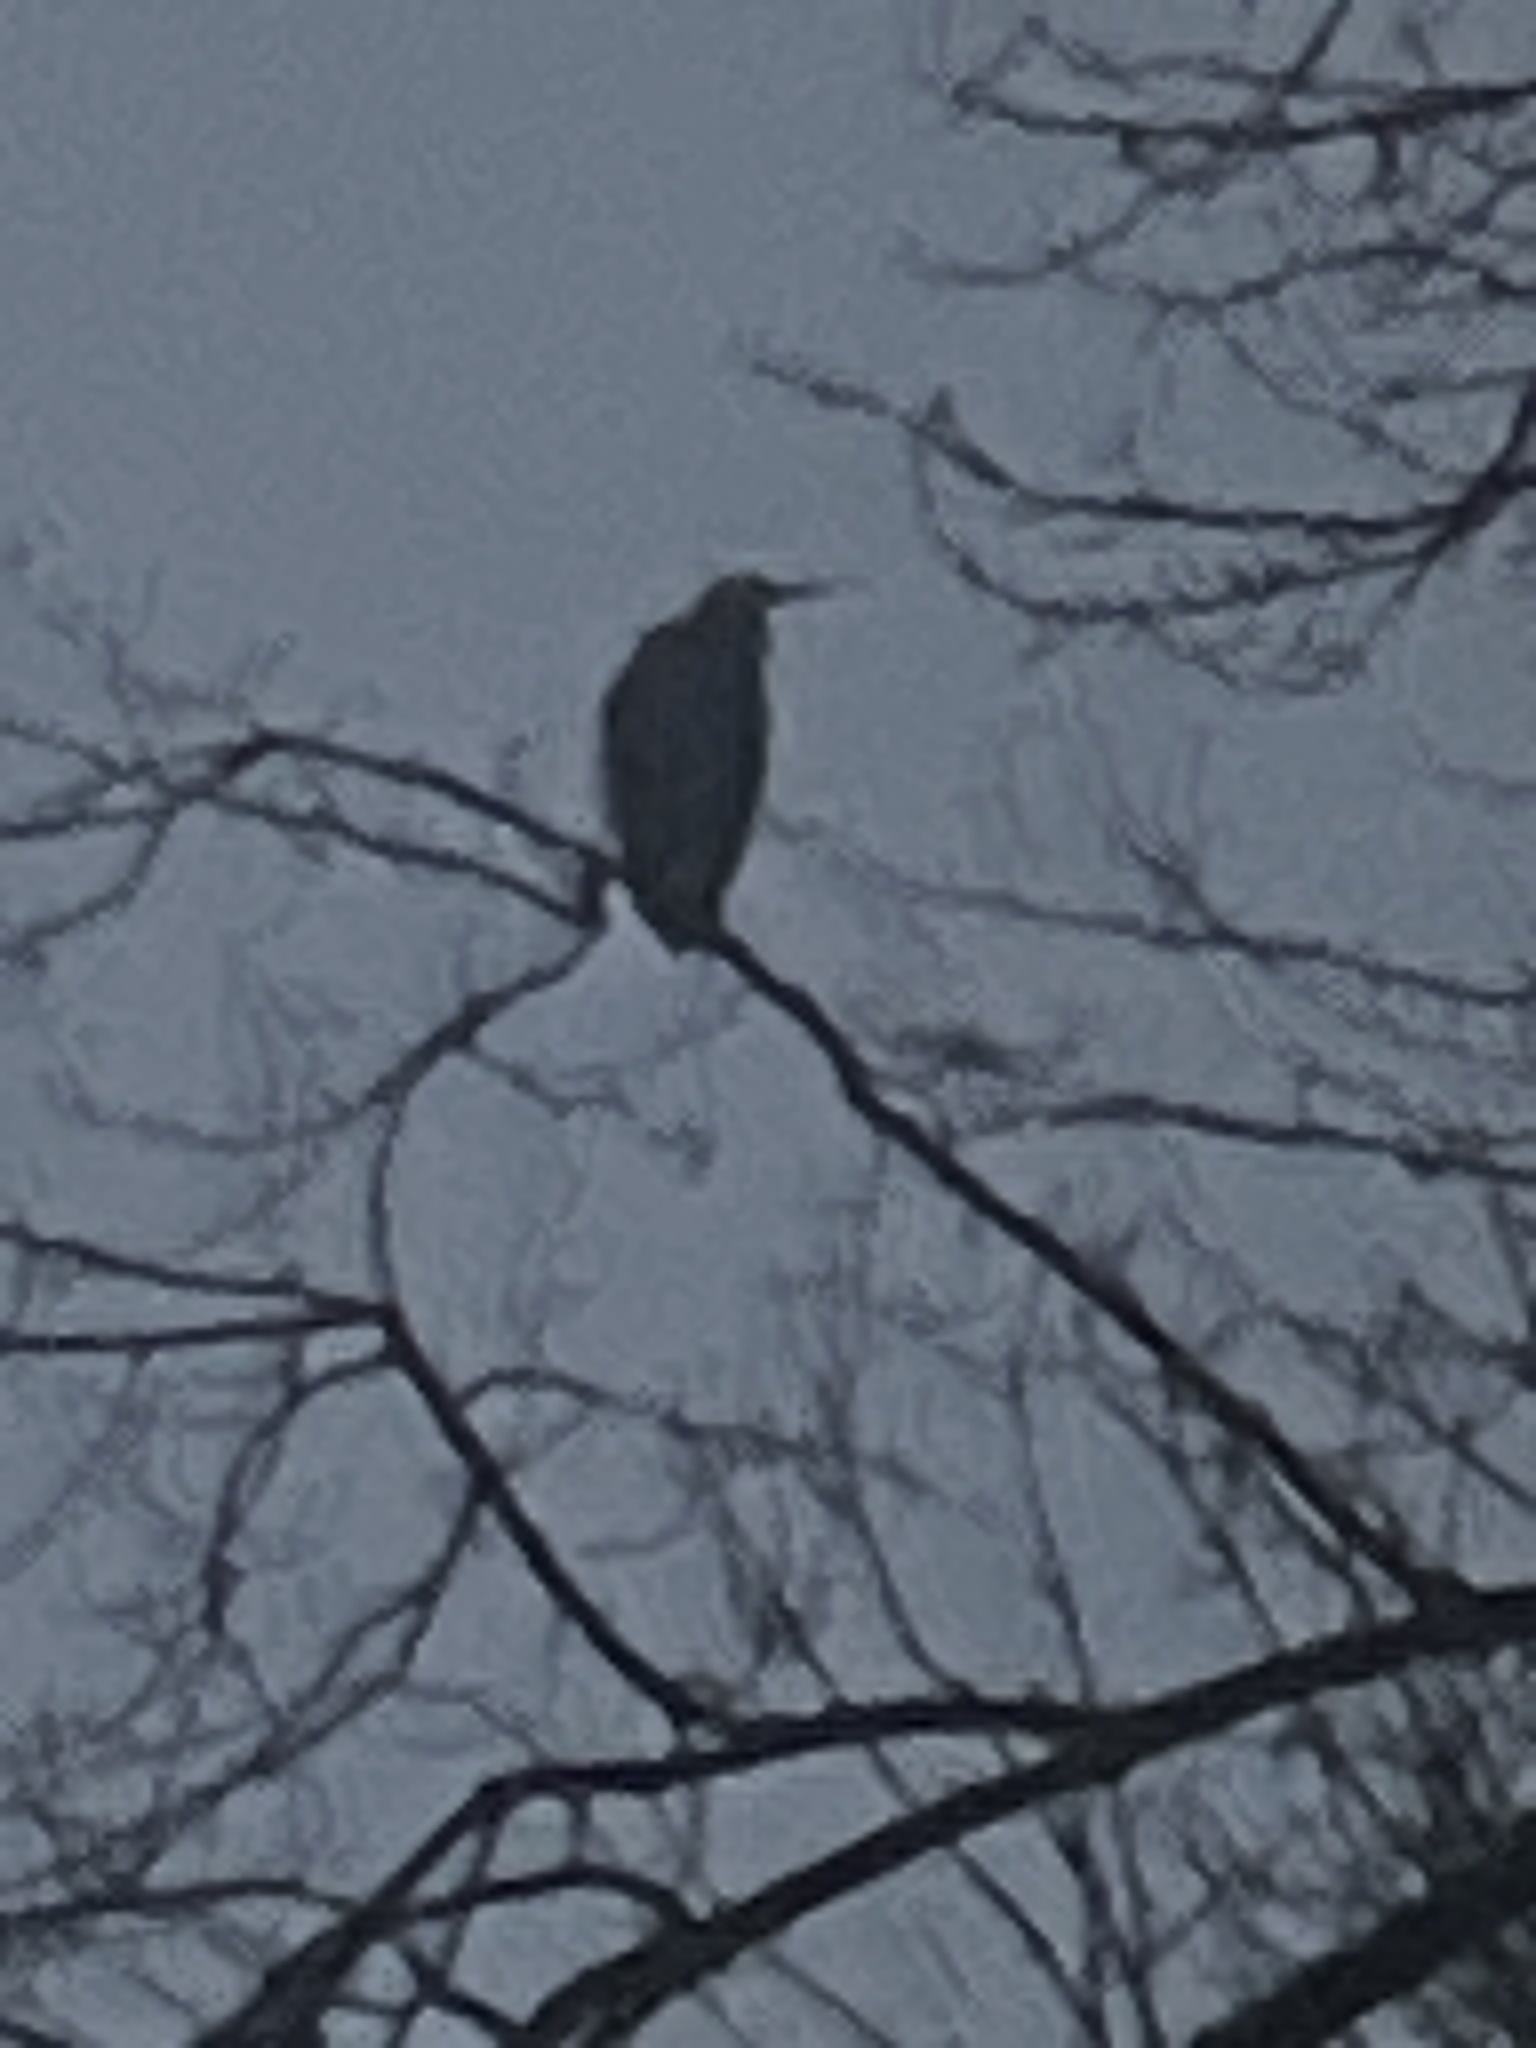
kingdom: Animalia
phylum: Chordata
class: Aves
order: Pelecaniformes
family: Ardeidae
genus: Ardea
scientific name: Ardea herodias
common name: Great blue heron
